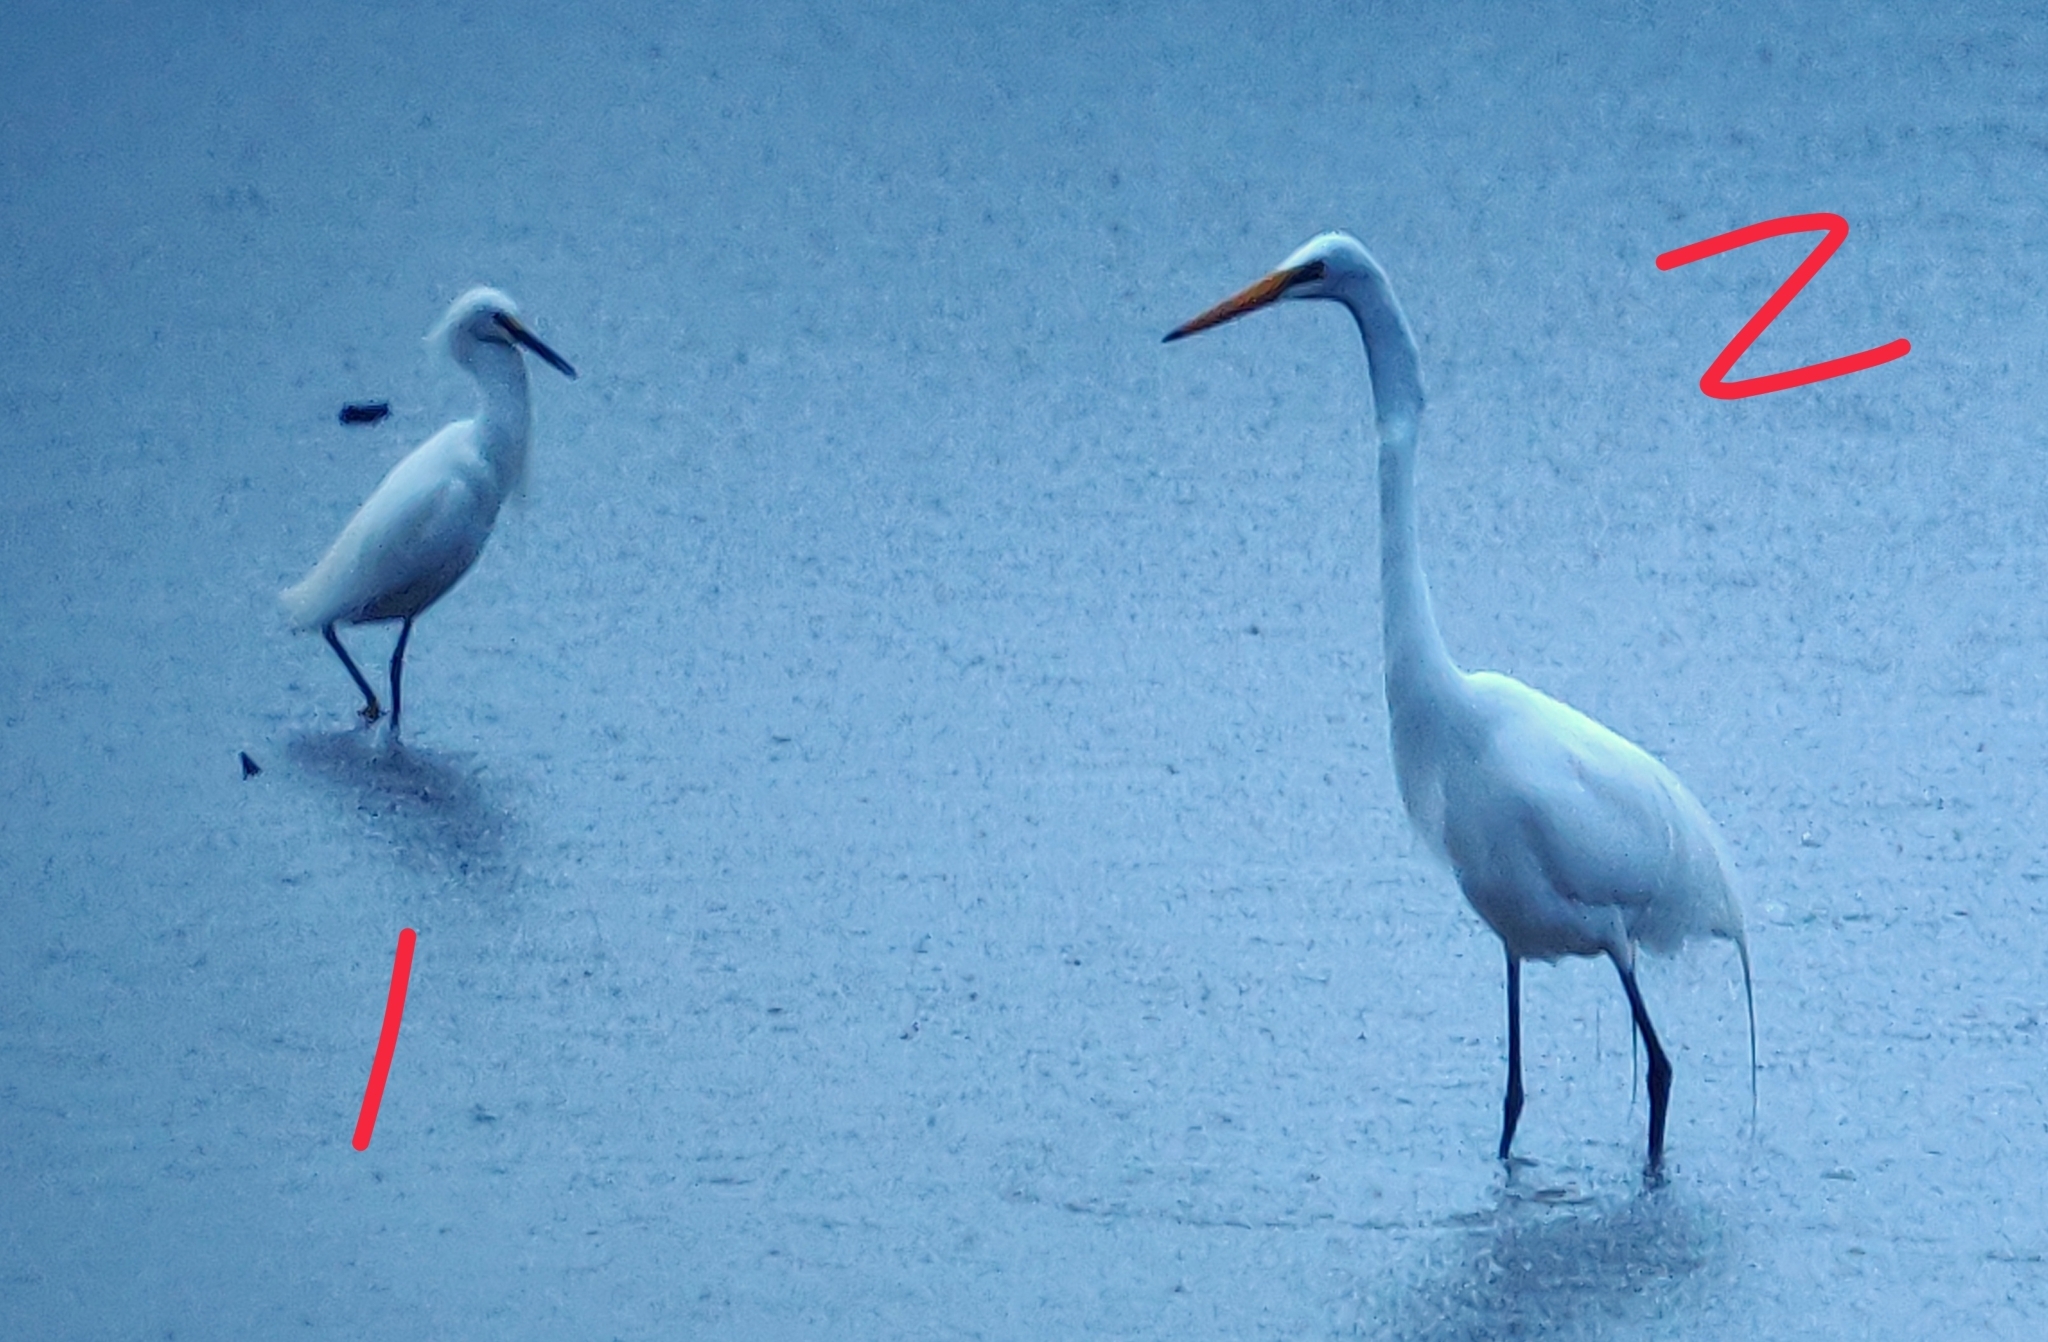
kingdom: Animalia
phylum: Chordata
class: Aves
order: Pelecaniformes
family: Ardeidae
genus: Ardea
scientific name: Ardea alba
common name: Great egret
